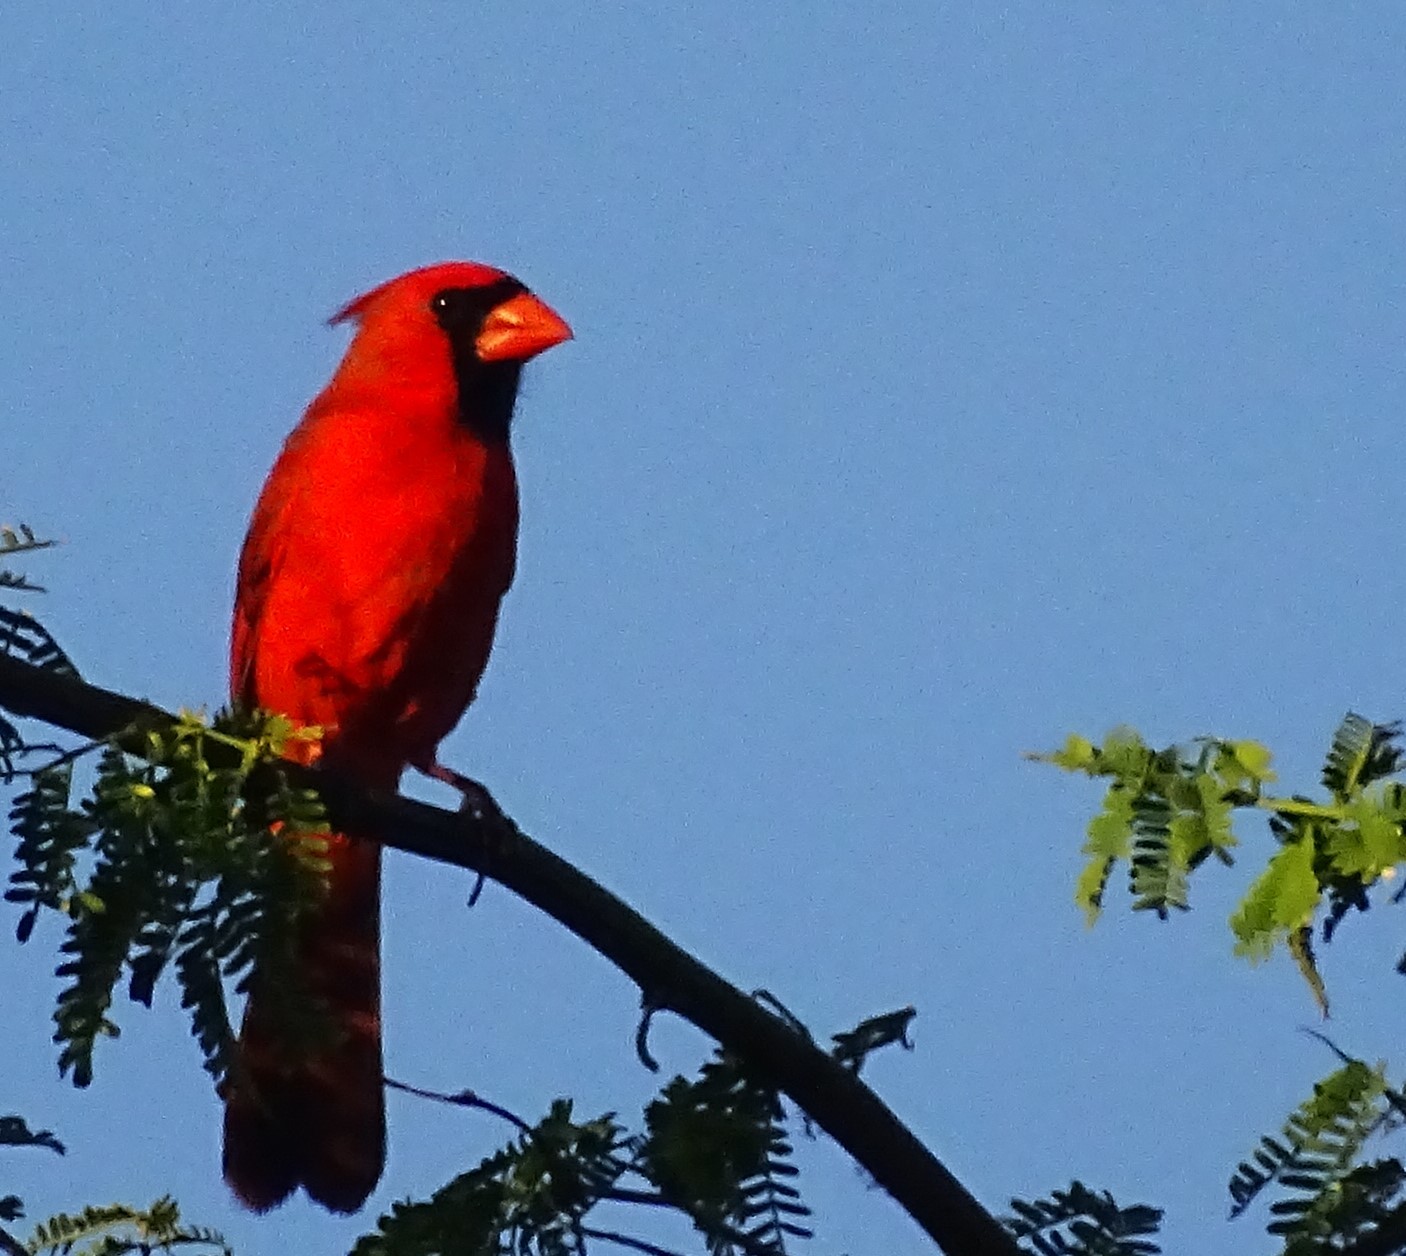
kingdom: Animalia
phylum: Chordata
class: Aves
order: Passeriformes
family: Cardinalidae
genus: Cardinalis
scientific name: Cardinalis cardinalis
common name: Northern cardinal
